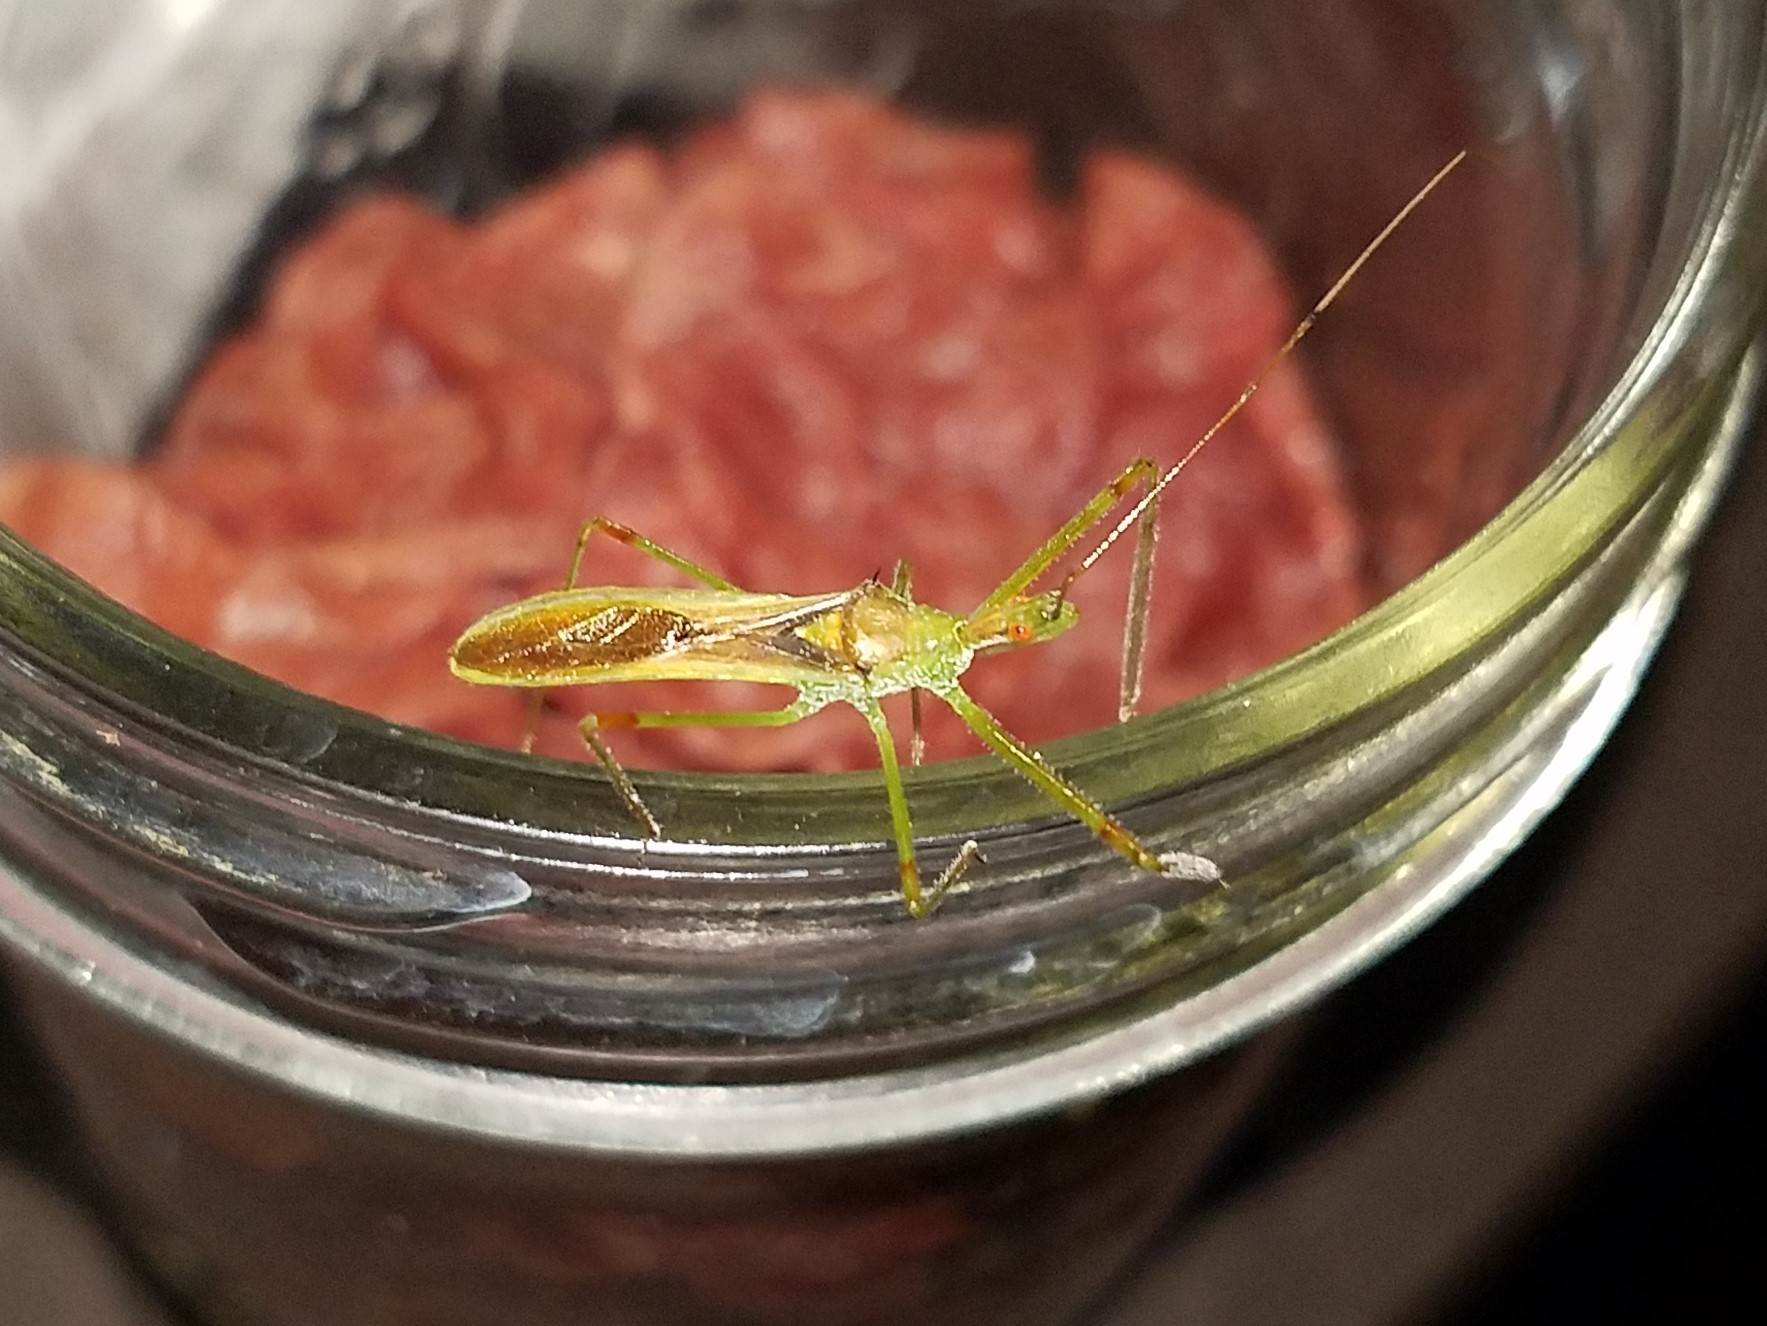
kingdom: Animalia
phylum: Arthropoda
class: Insecta
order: Hemiptera
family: Reduviidae
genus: Zelus
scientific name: Zelus luridus
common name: Pale green assassin bug
